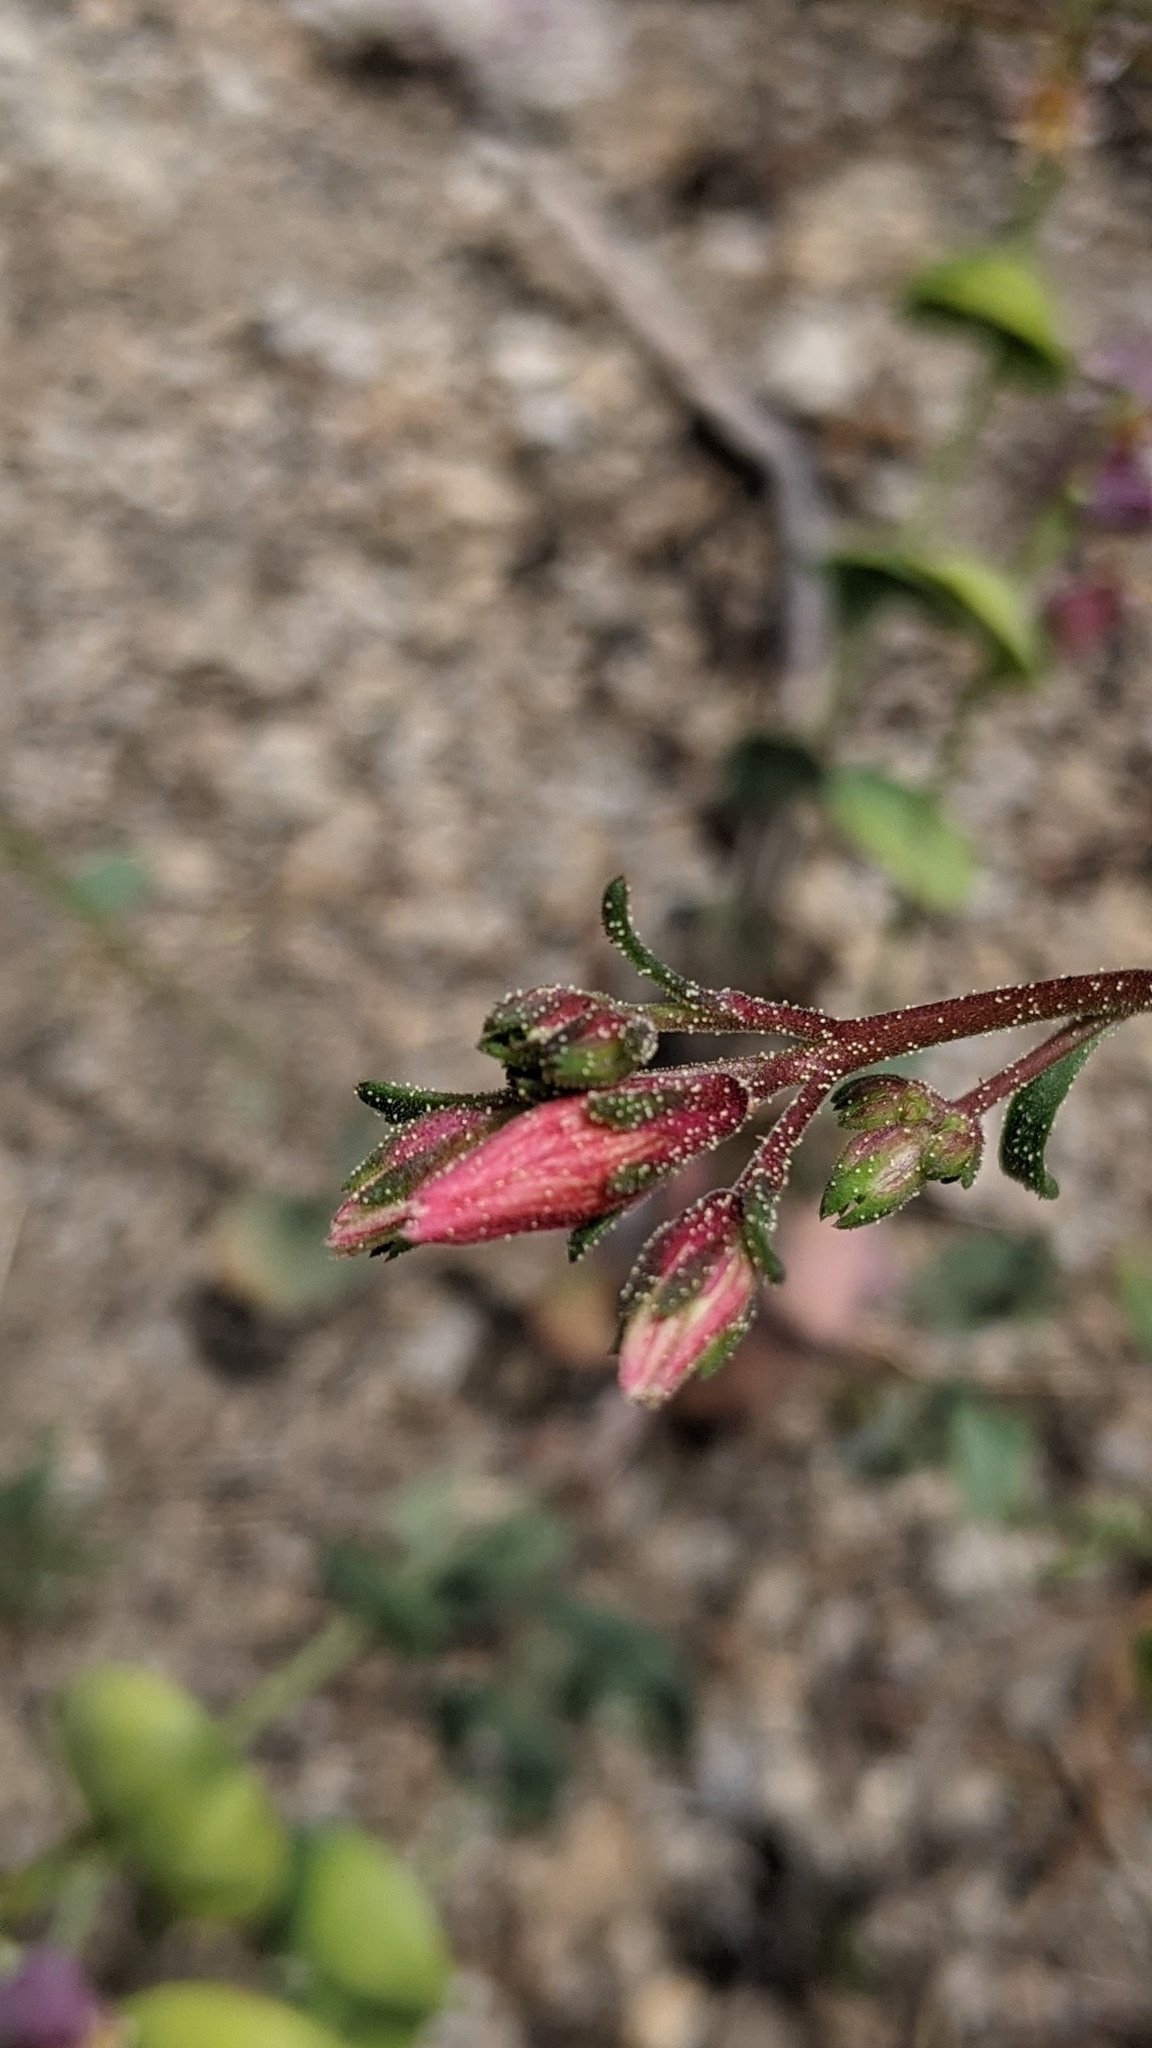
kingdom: Plantae
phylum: Tracheophyta
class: Magnoliopsida
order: Ericales
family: Polemoniaceae
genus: Ipomopsis
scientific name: Ipomopsis aggregata
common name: Scarlet gilia
